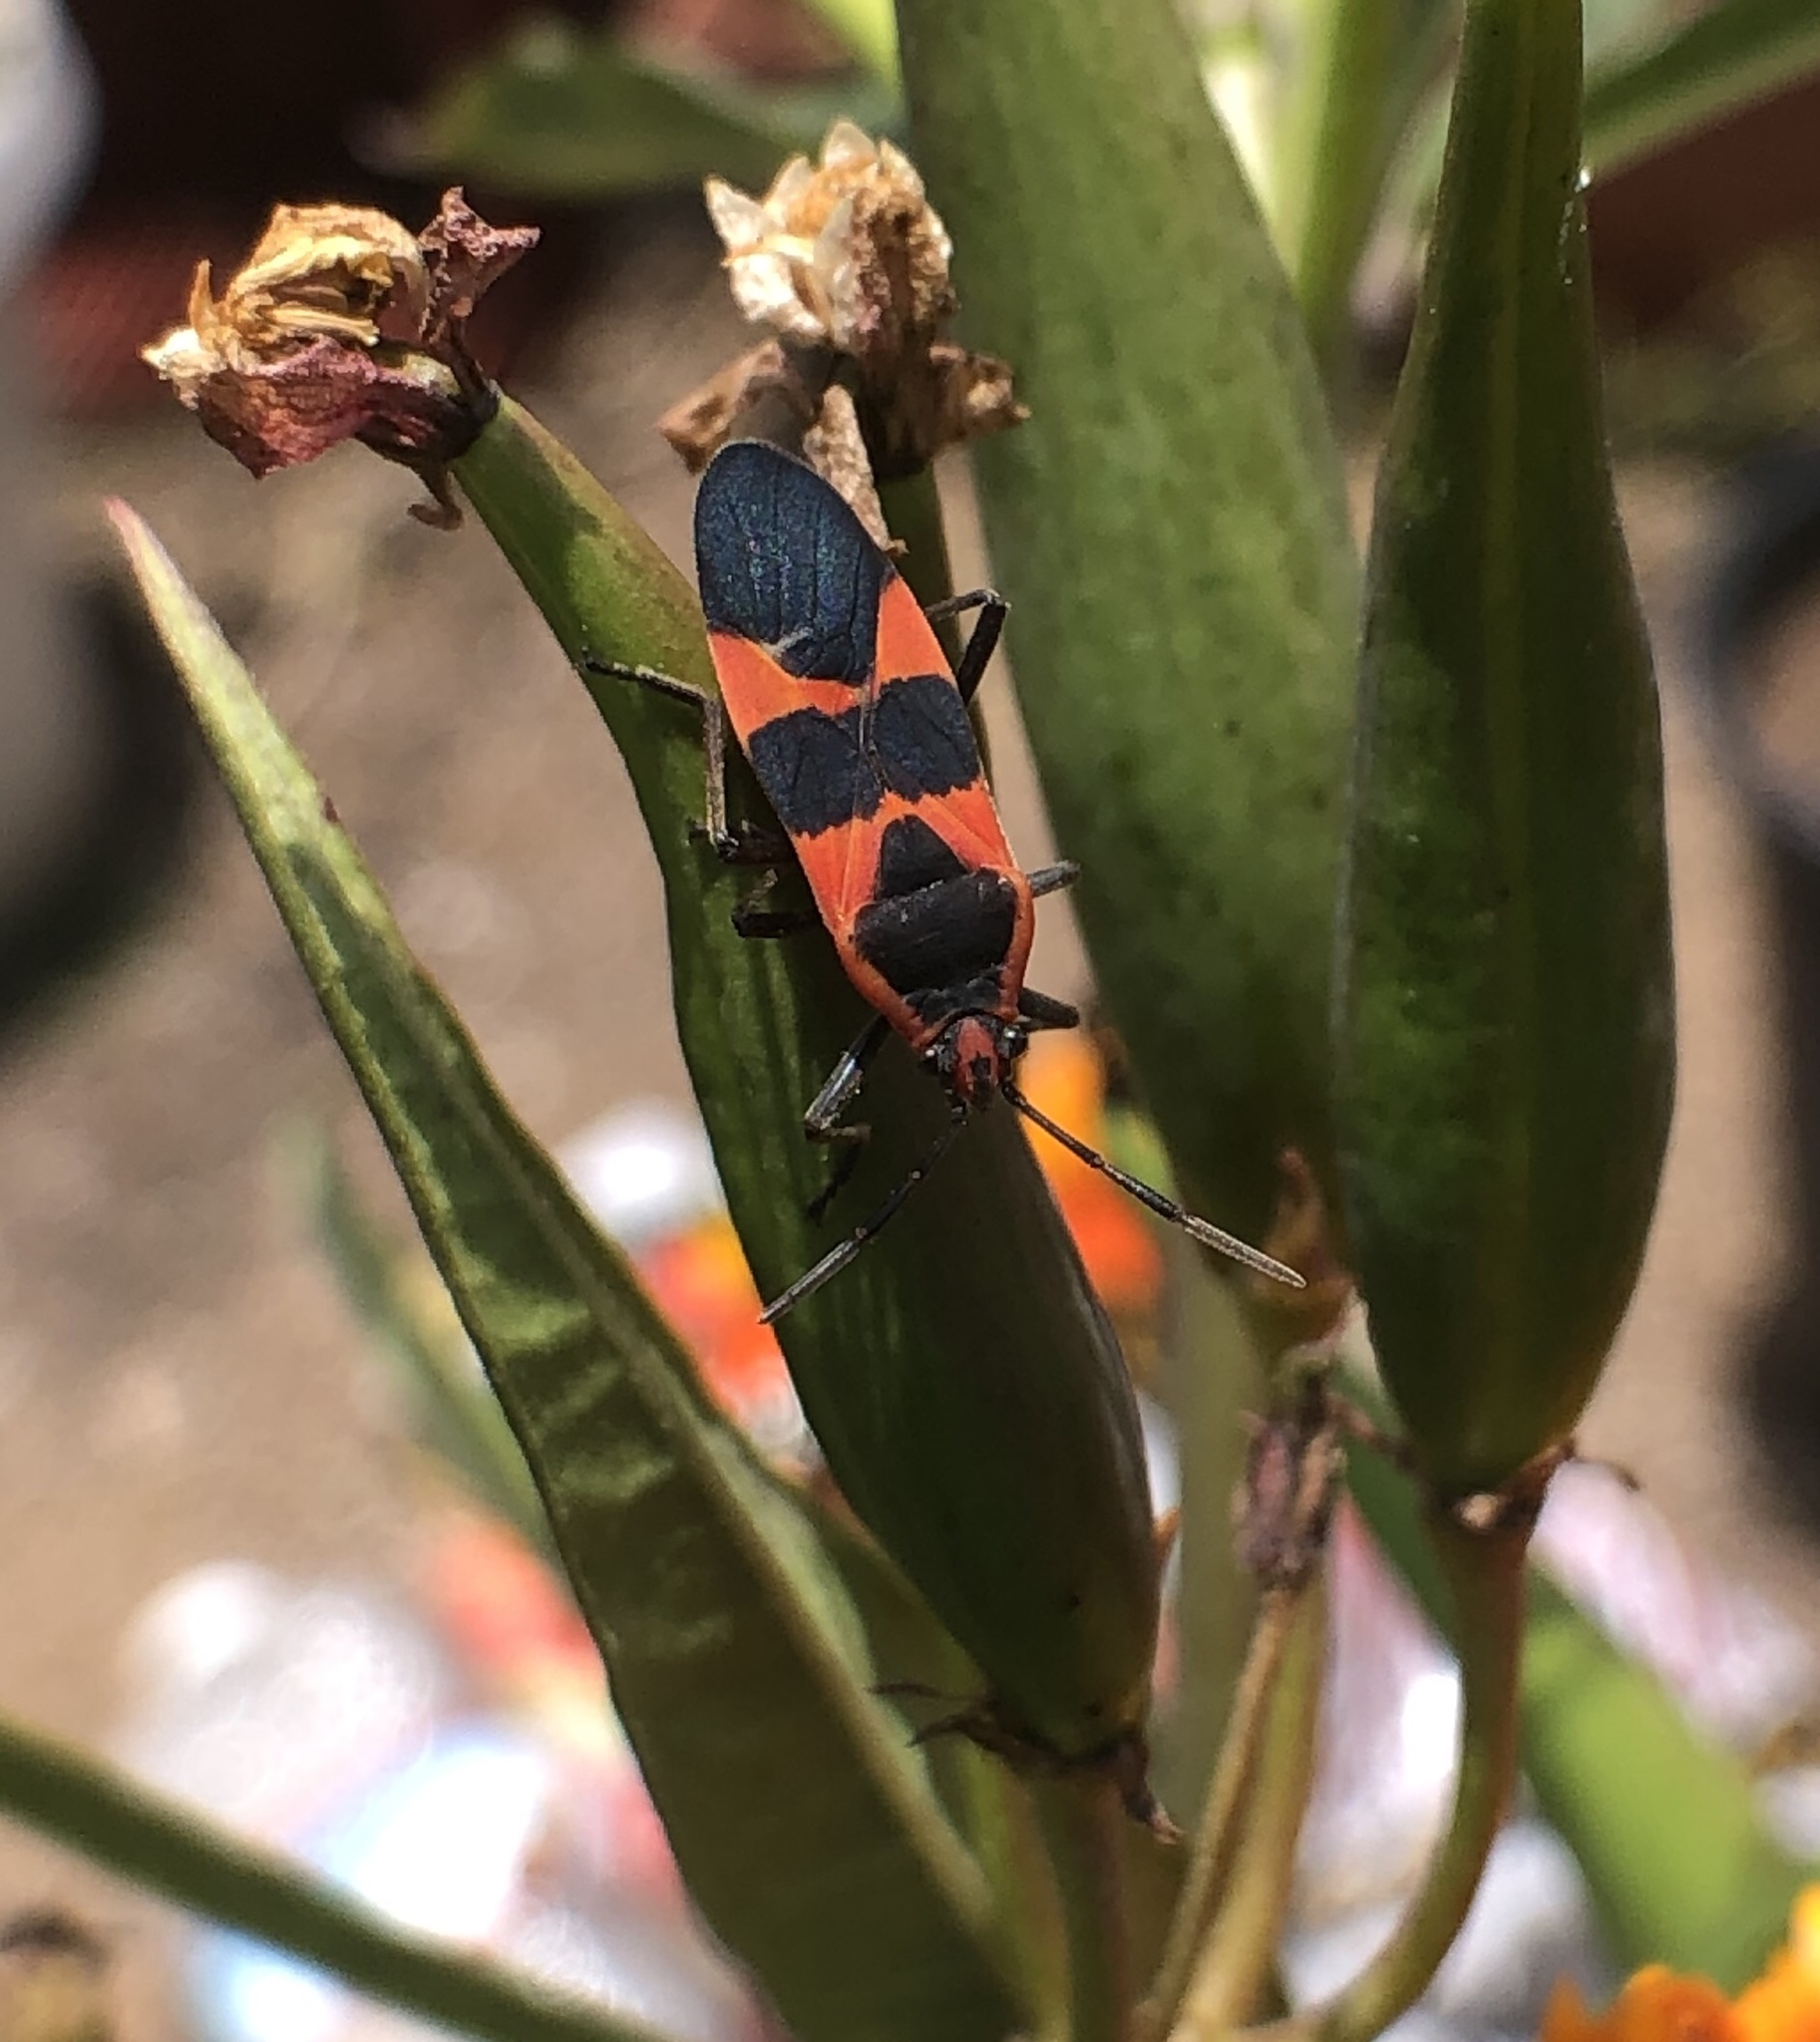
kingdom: Animalia
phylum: Arthropoda
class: Insecta
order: Hemiptera
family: Lygaeidae
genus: Oncopeltus
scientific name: Oncopeltus fasciatus
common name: Large milkweed bug
